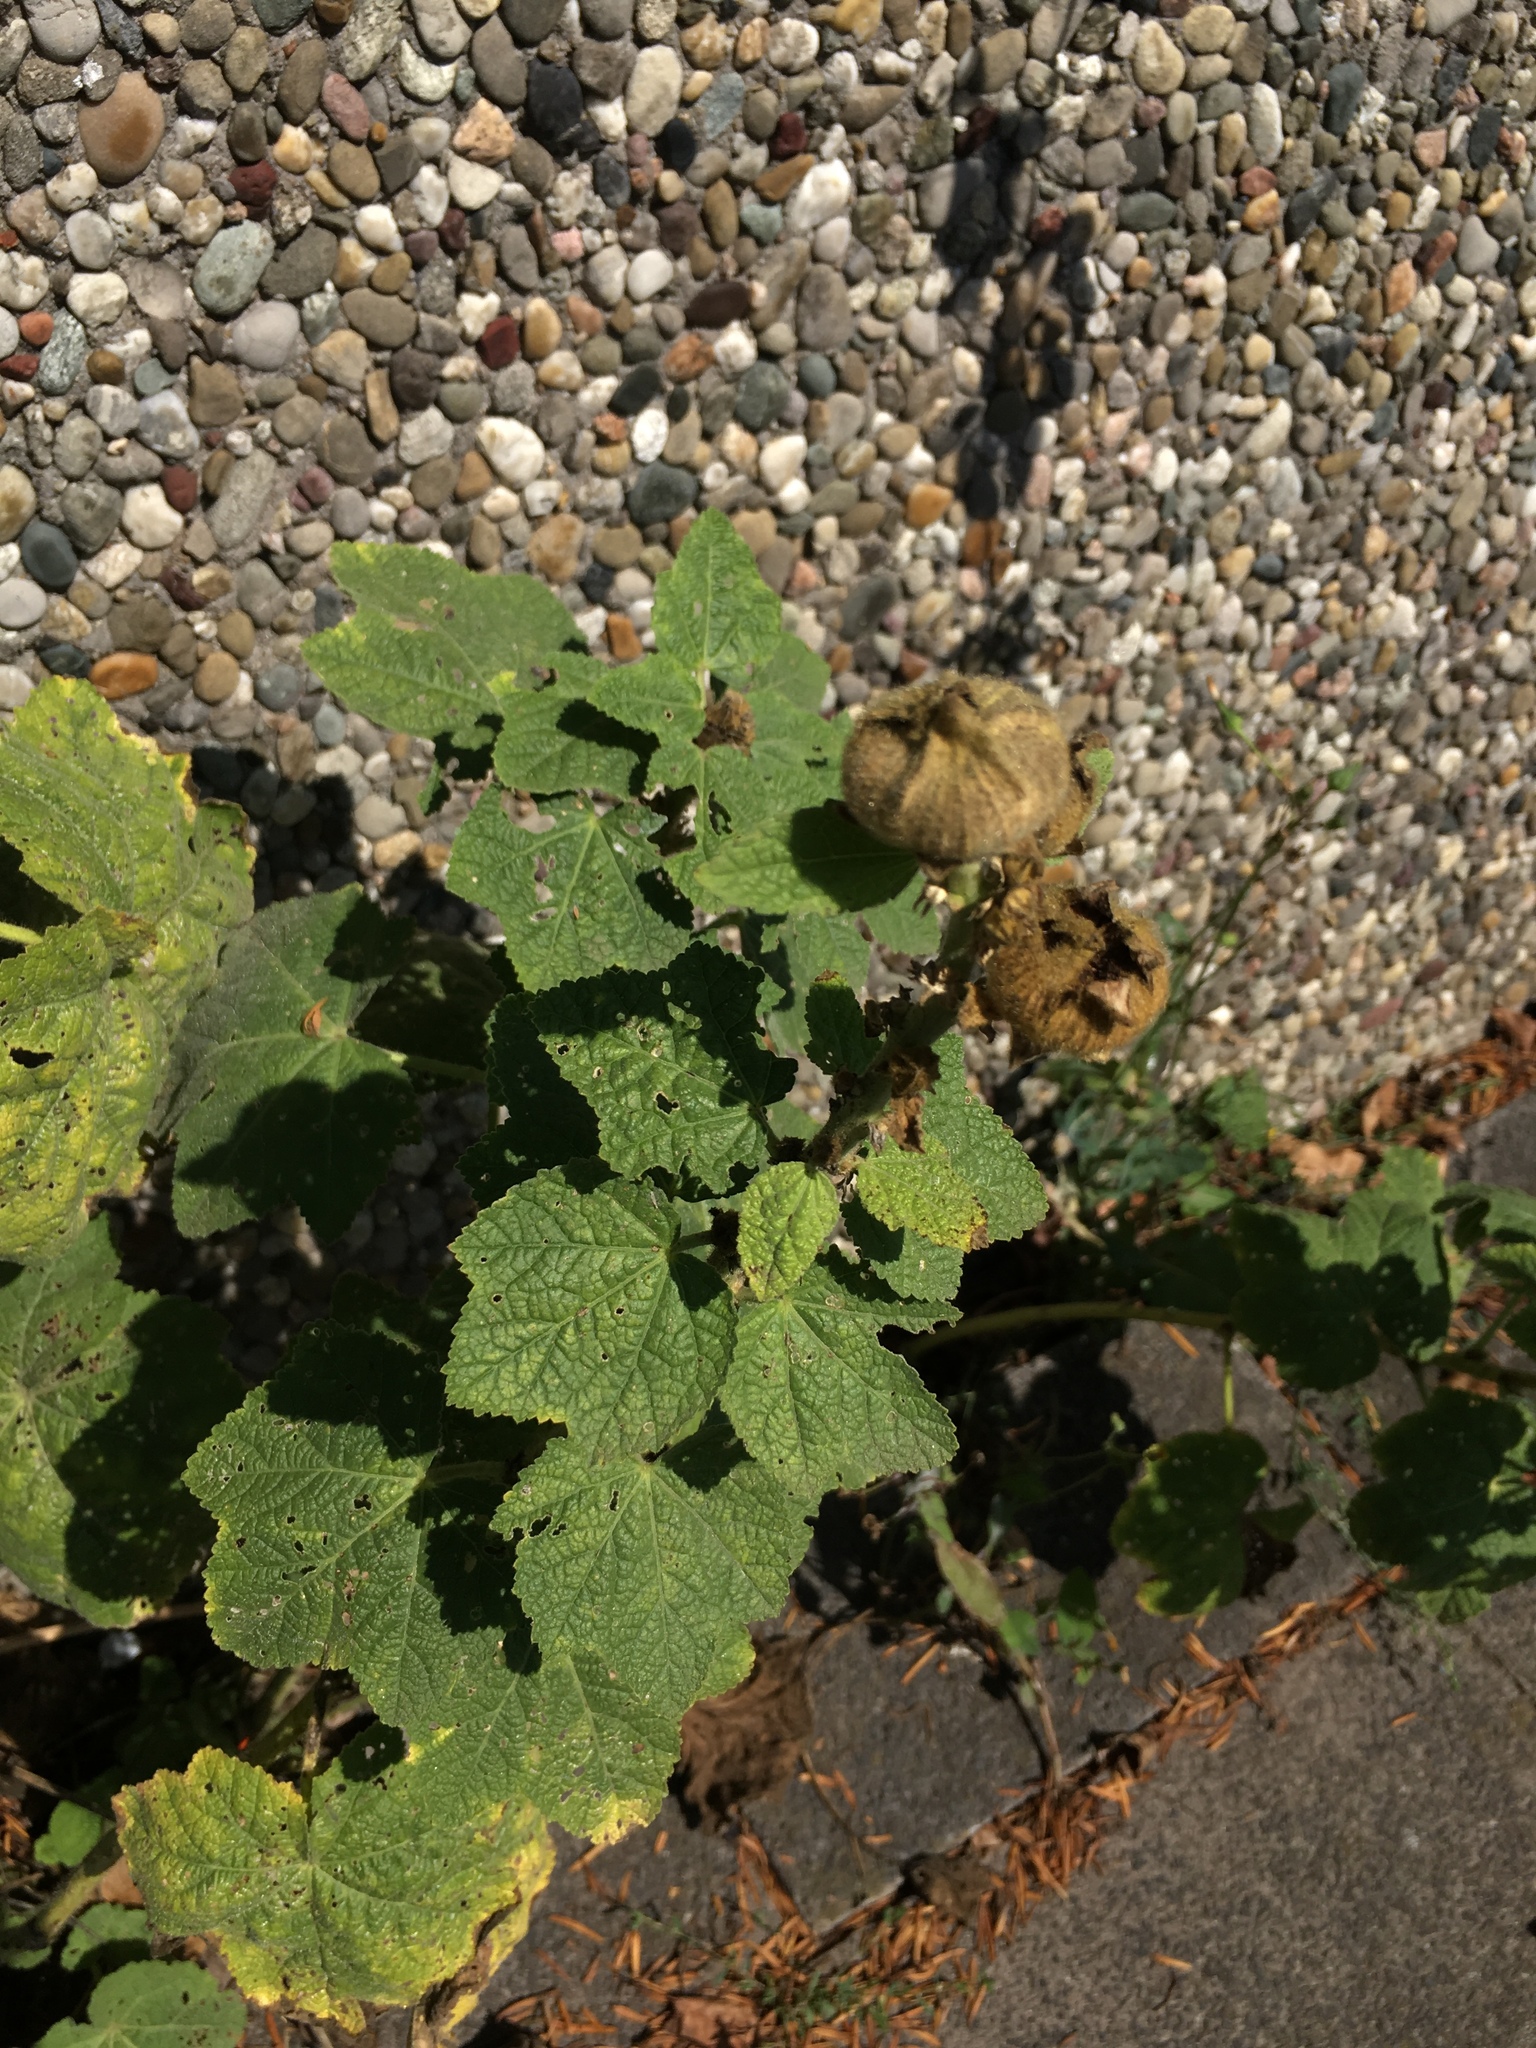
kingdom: Plantae
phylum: Tracheophyta
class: Magnoliopsida
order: Malvales
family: Malvaceae
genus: Alcea
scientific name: Alcea rosea
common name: Hollyhock
